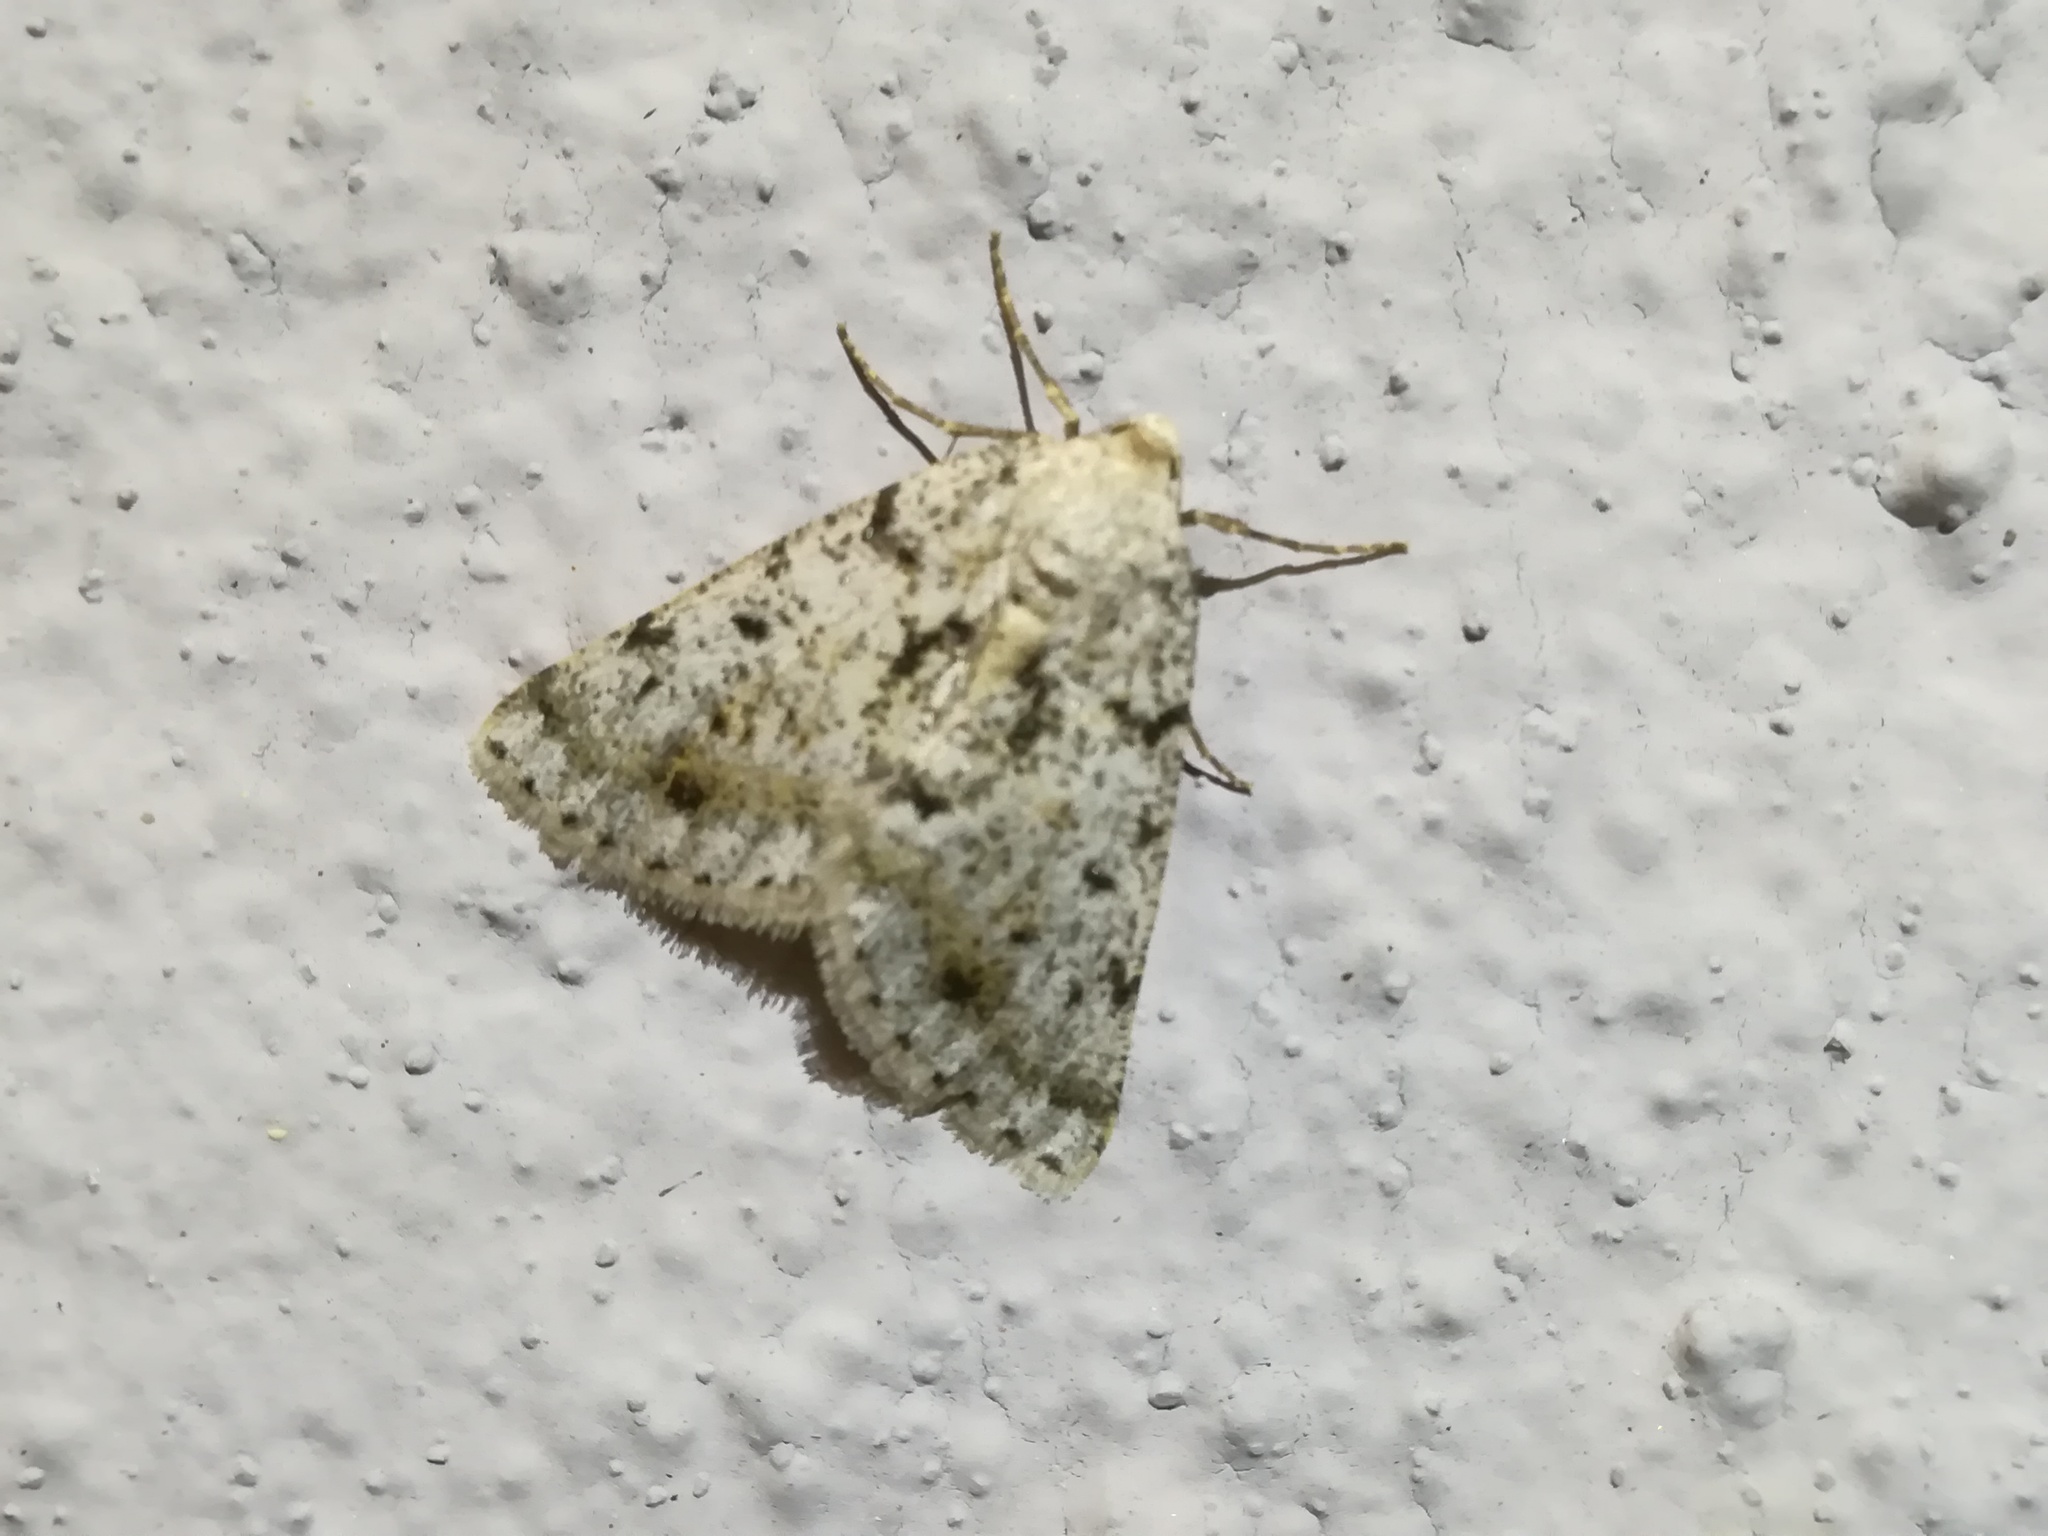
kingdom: Animalia
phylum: Arthropoda
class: Insecta
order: Lepidoptera
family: Geometridae
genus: Isturgia
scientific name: Isturgia miniosaria
